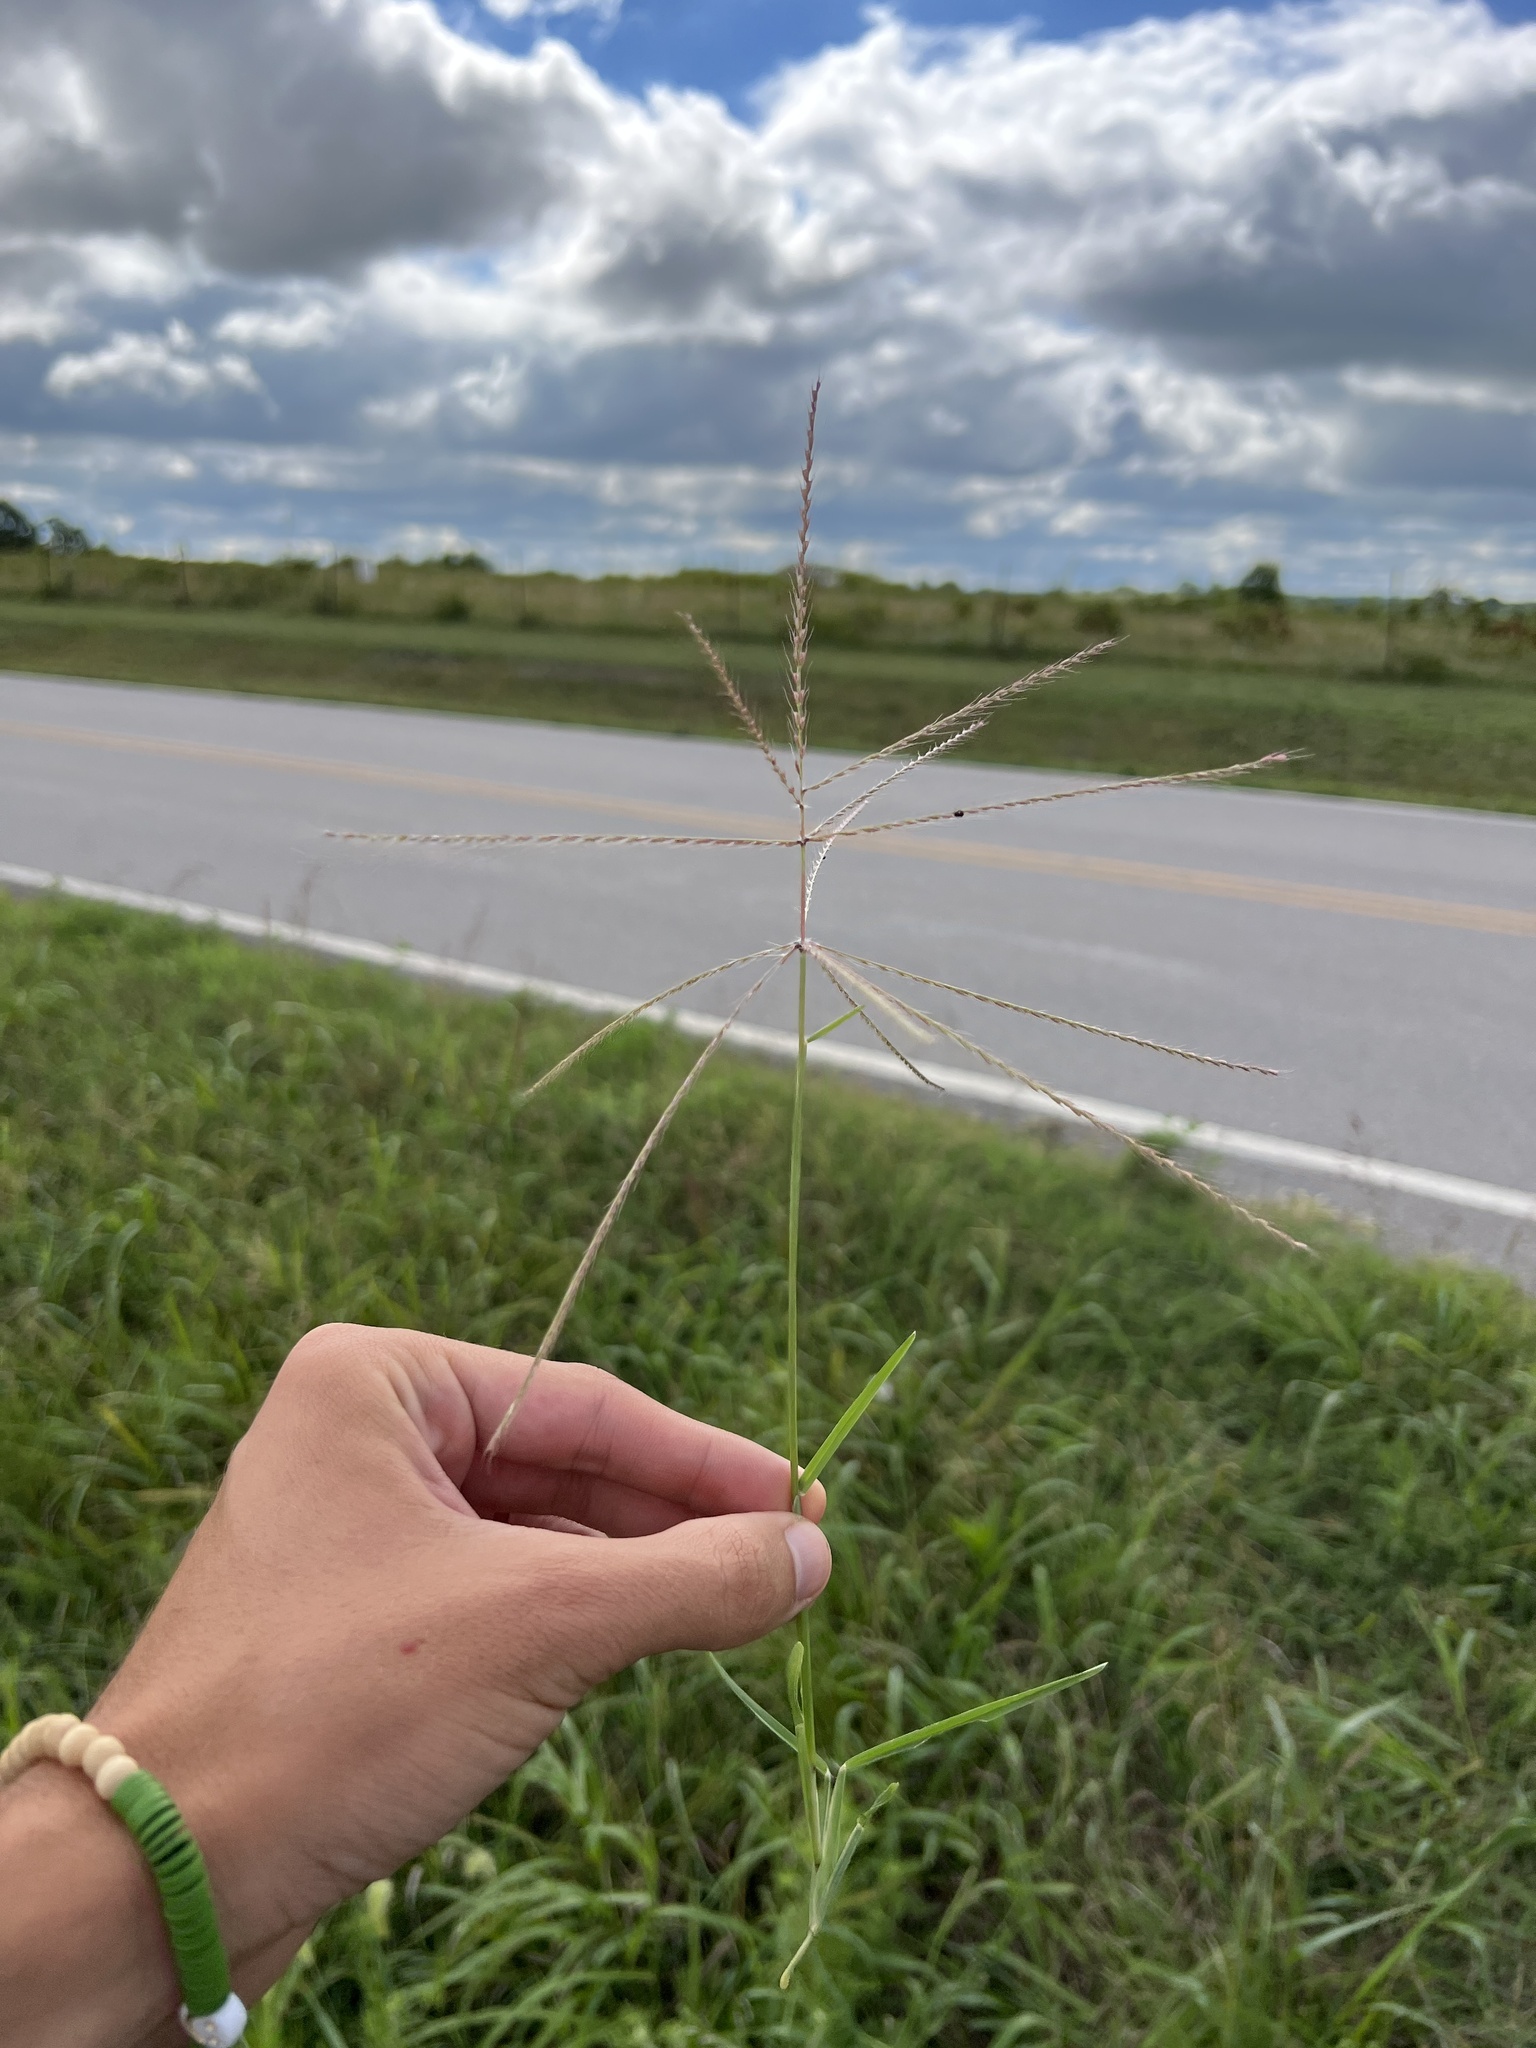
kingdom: Plantae
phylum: Tracheophyta
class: Liliopsida
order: Poales
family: Poaceae
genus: Chloris
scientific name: Chloris verticillata
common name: Tumble windmill grass
